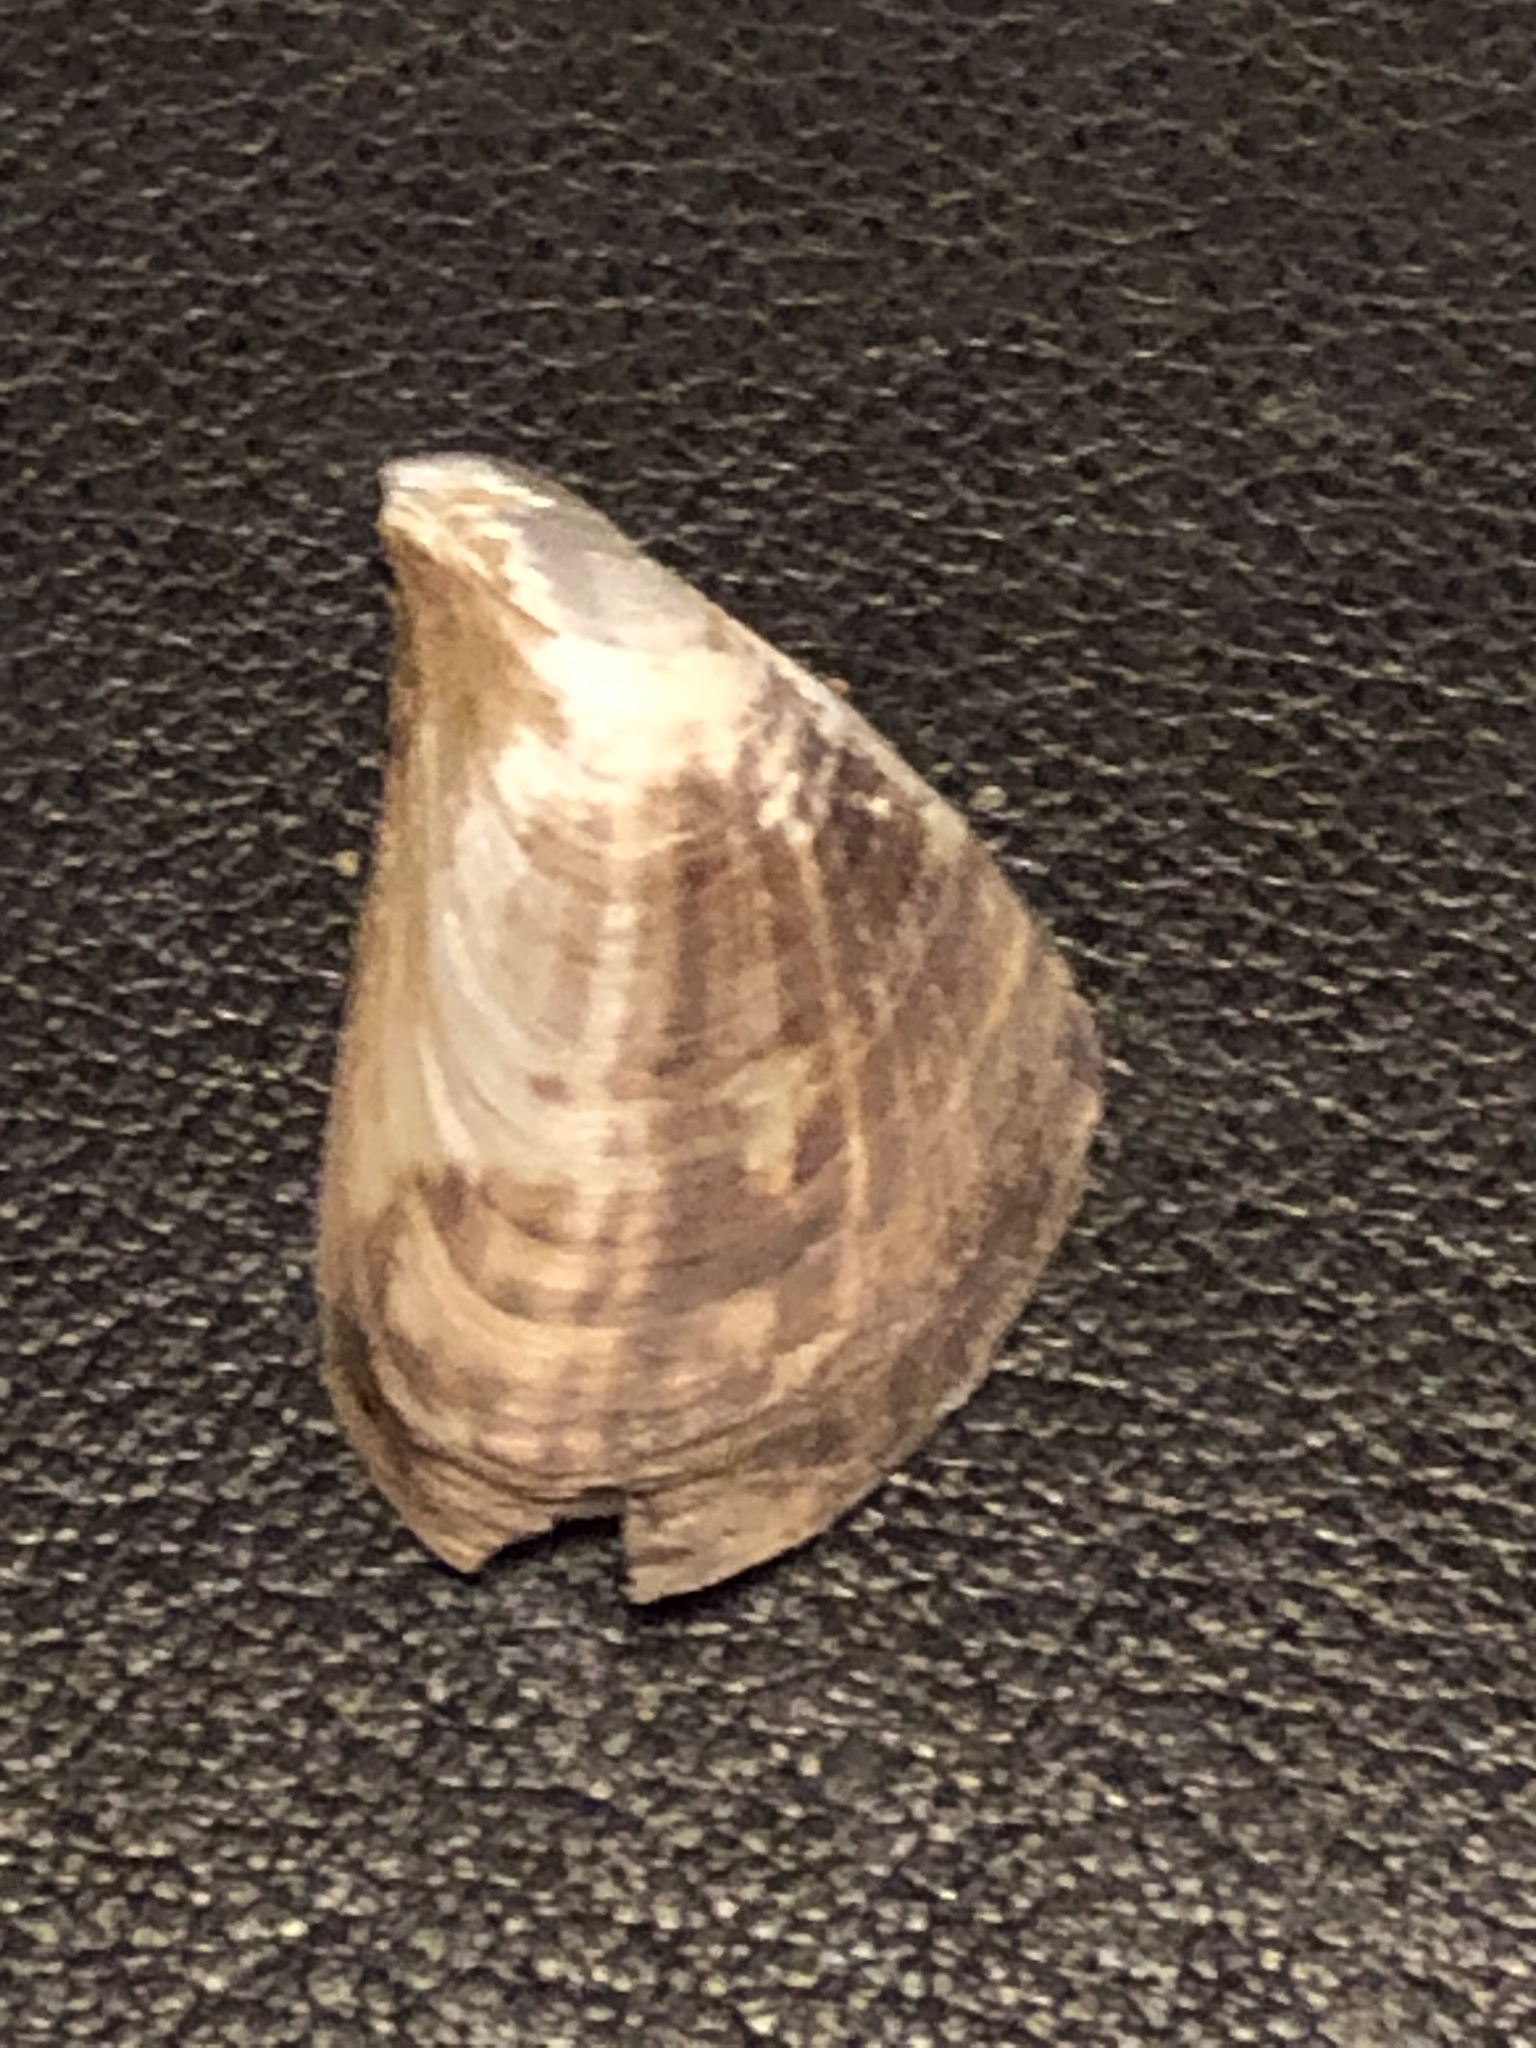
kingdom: Animalia
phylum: Mollusca
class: Bivalvia
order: Myida
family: Dreissenidae
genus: Dreissena
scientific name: Dreissena bugensis
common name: Quagga mussel
